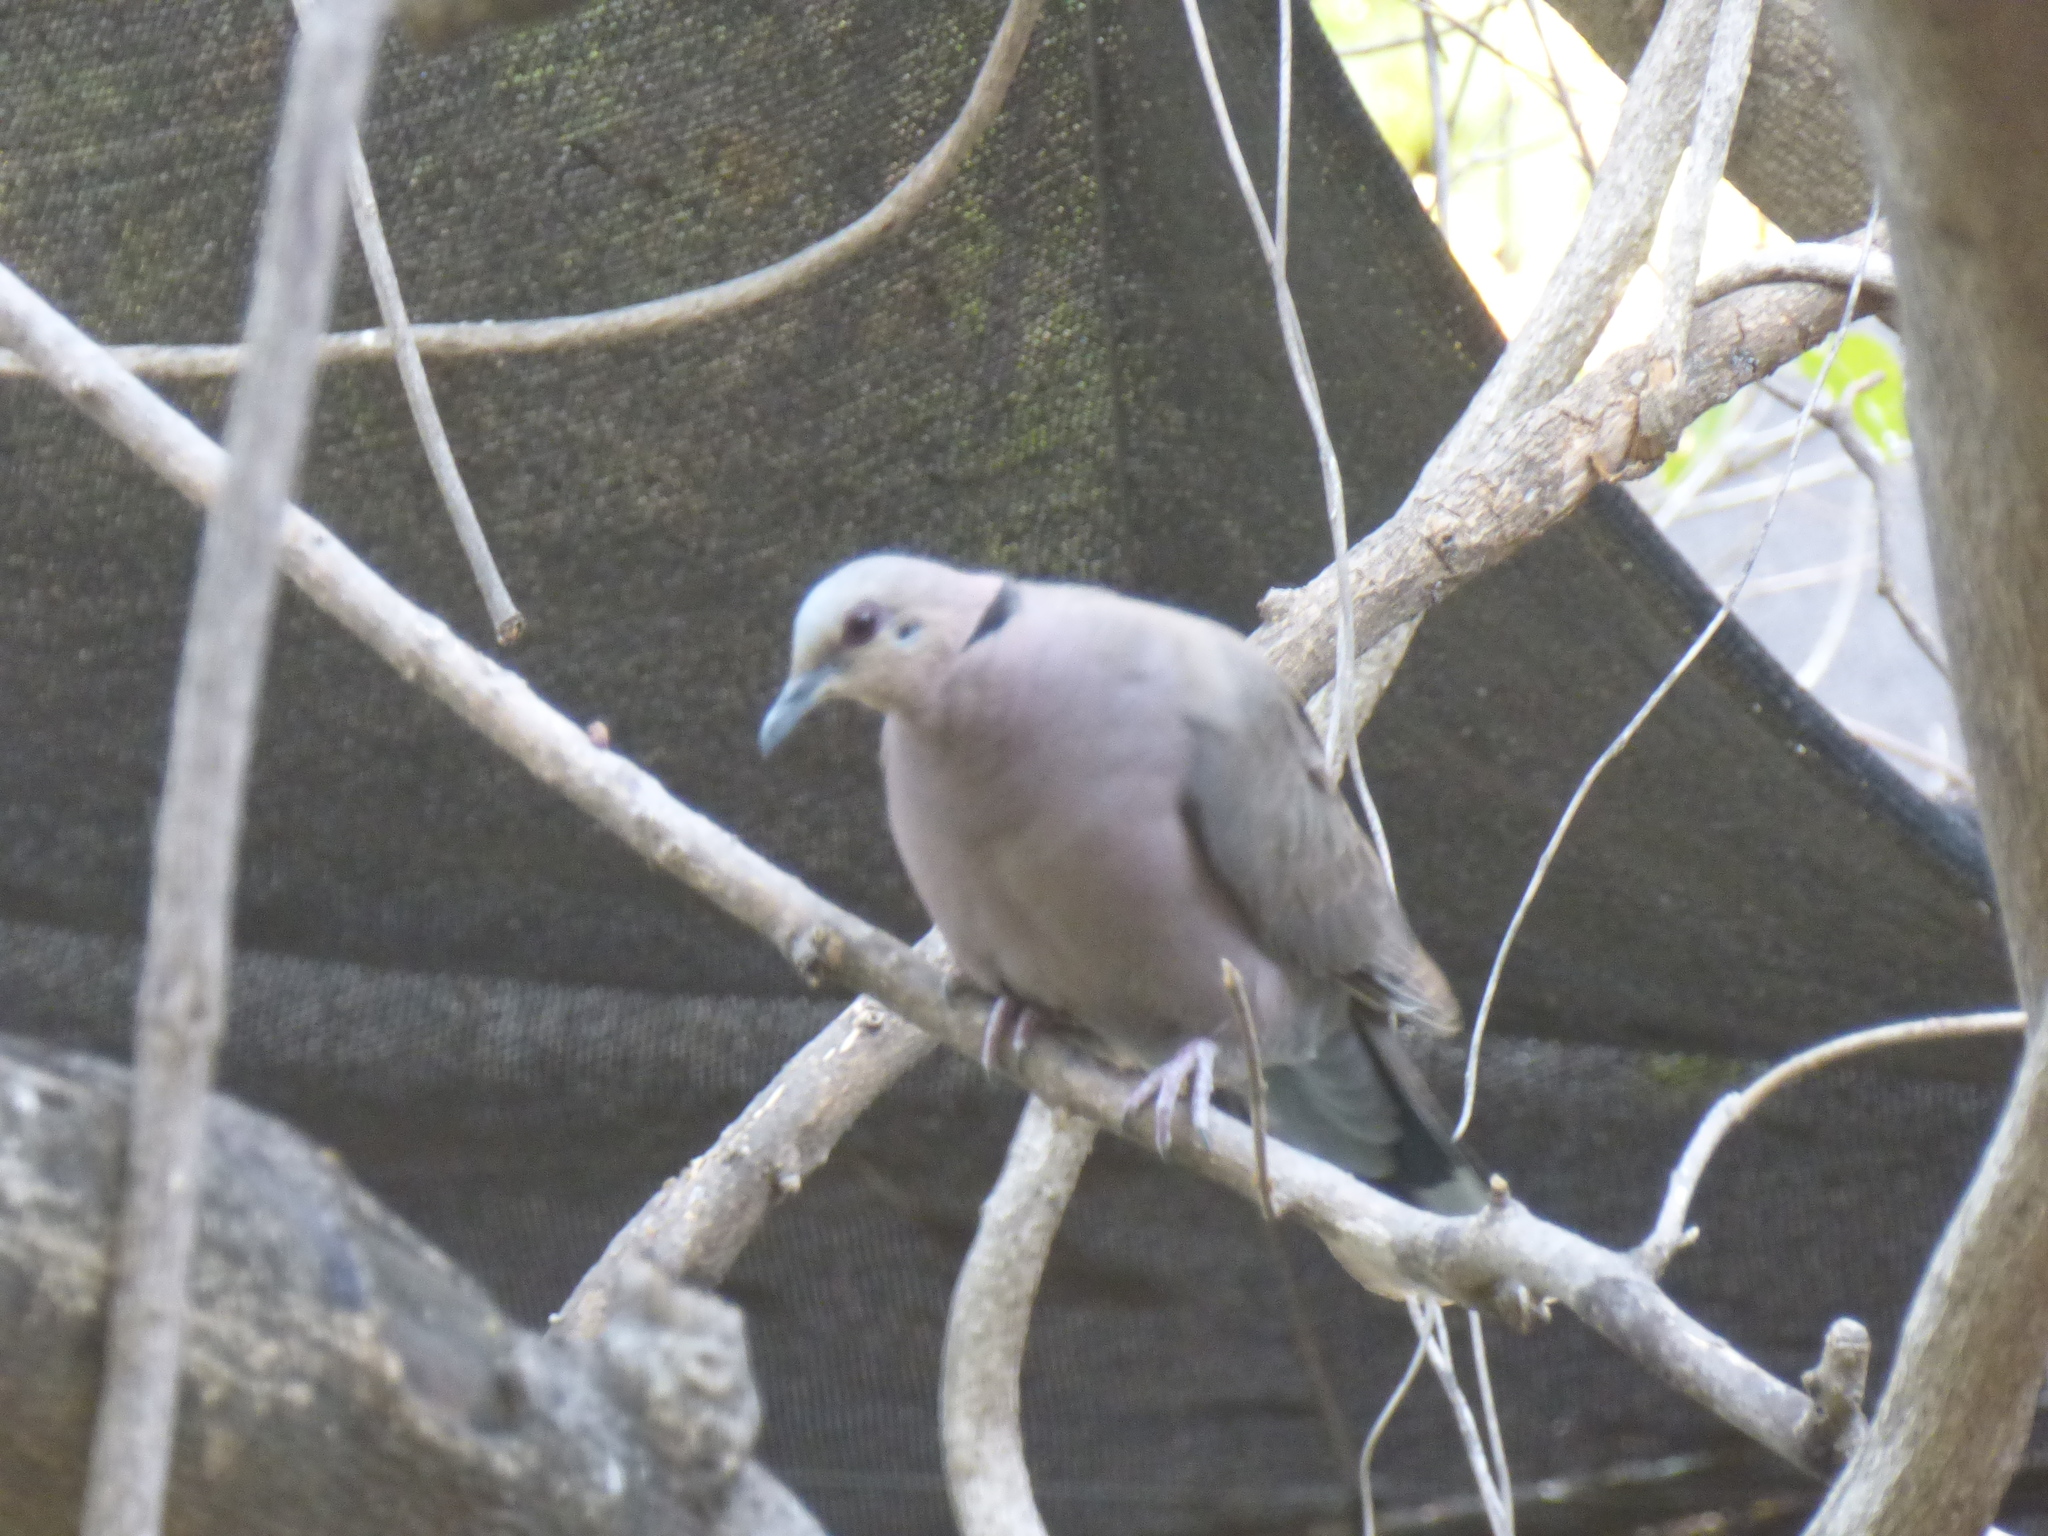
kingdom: Animalia
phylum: Chordata
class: Aves
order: Columbiformes
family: Columbidae
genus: Streptopelia
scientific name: Streptopelia semitorquata
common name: Red-eyed dove
